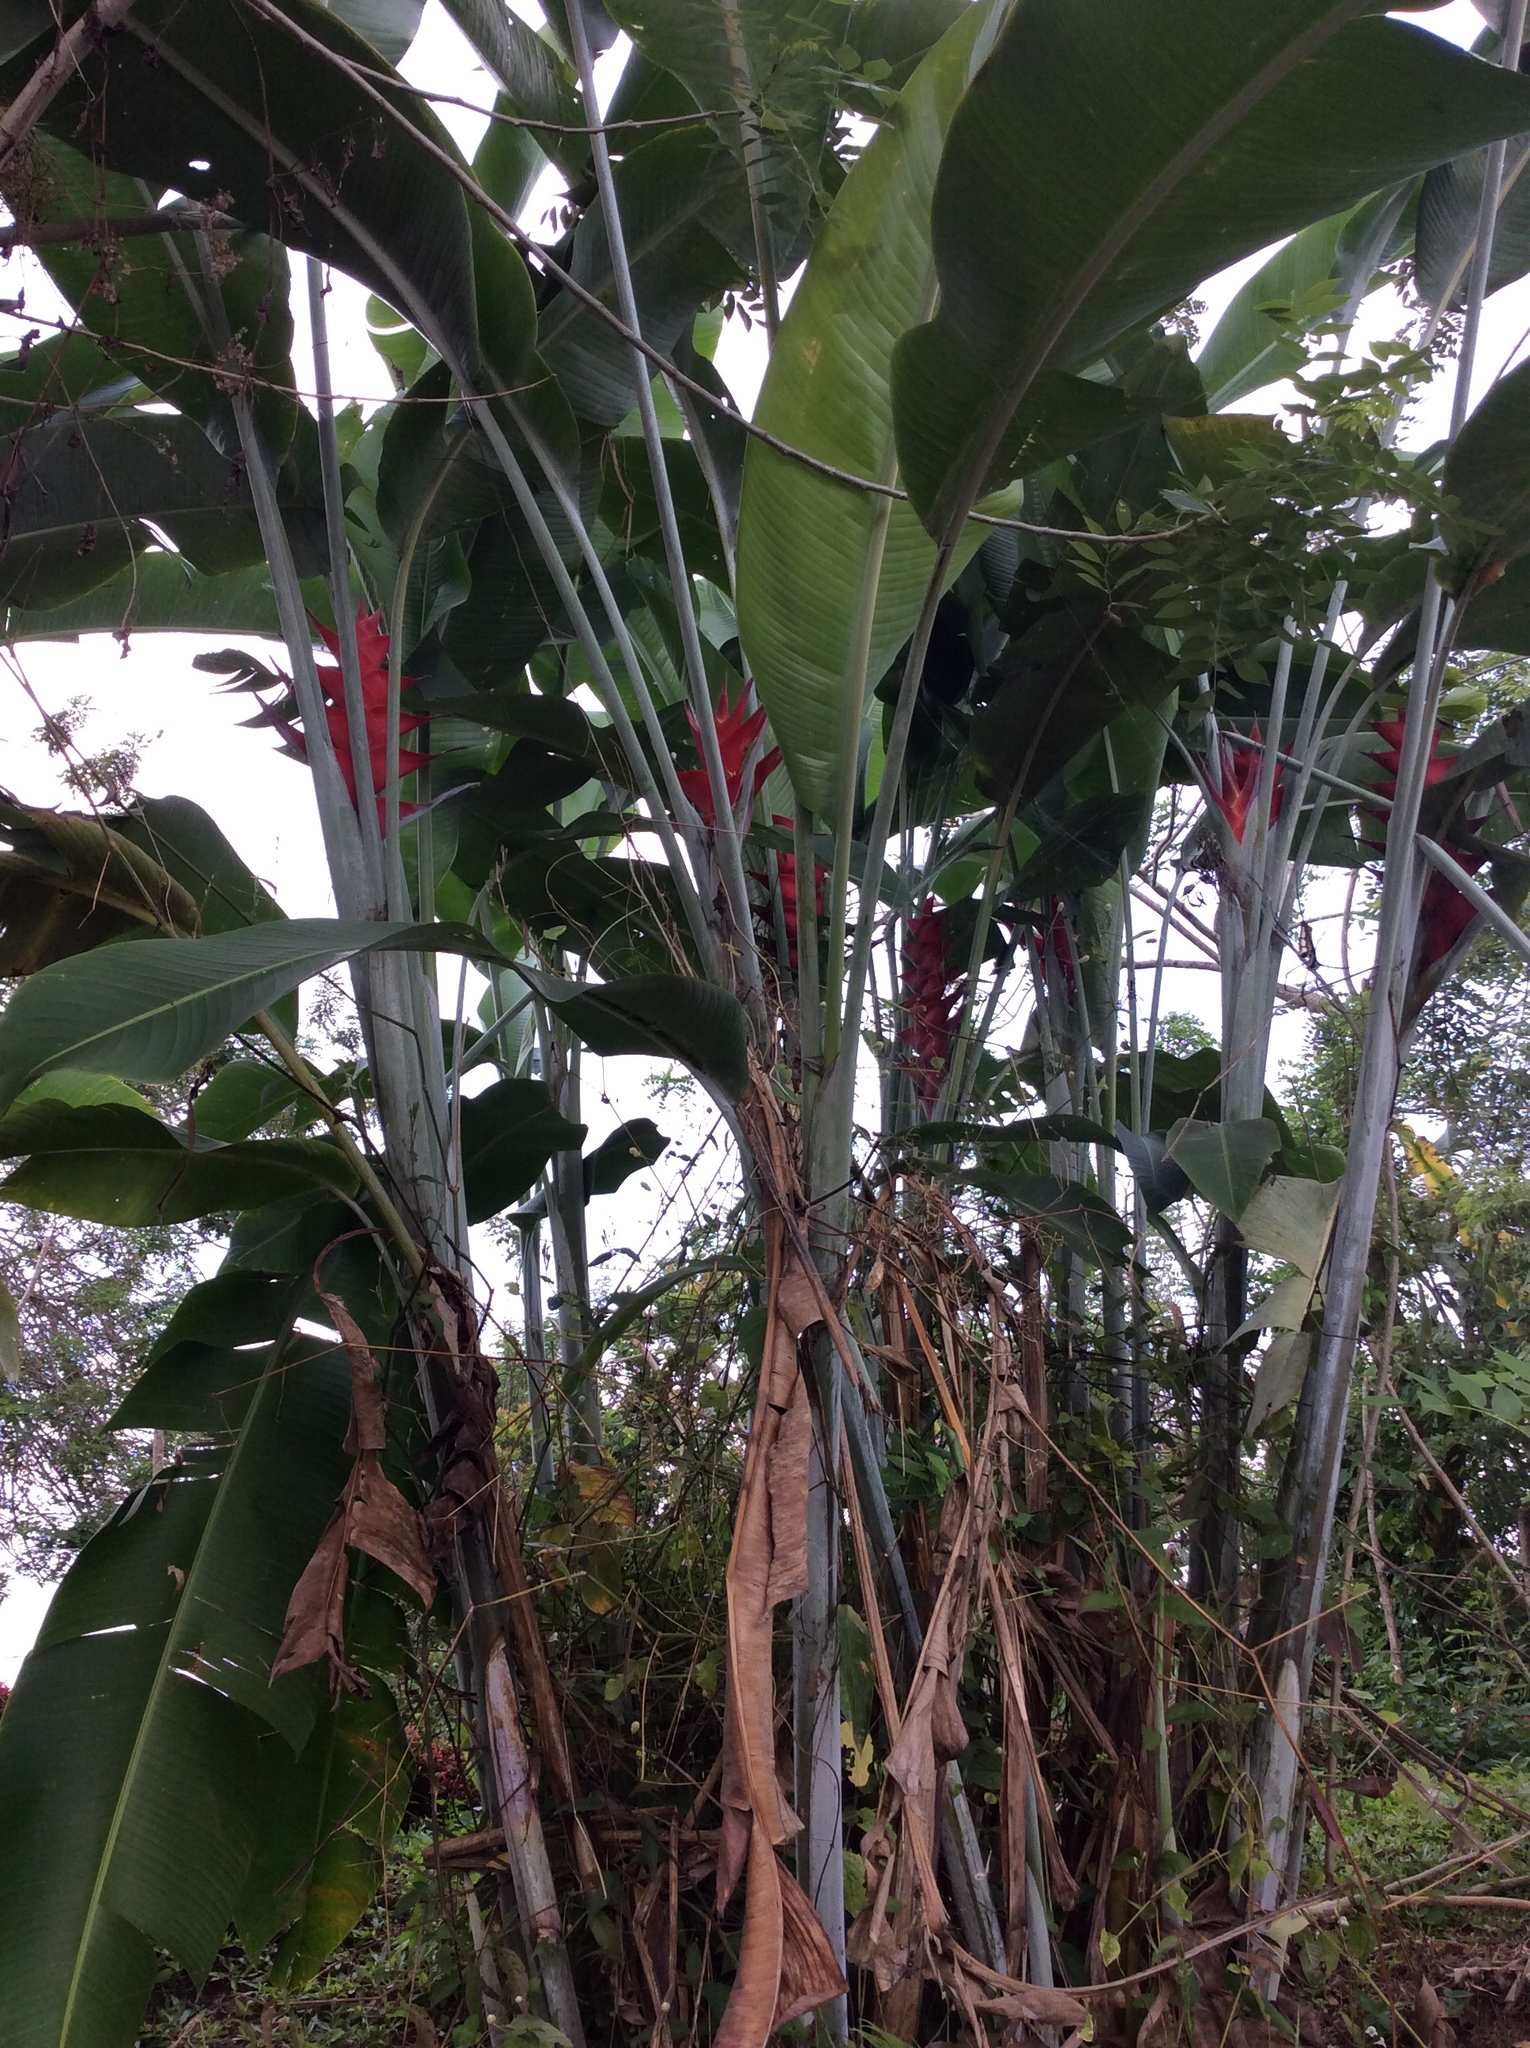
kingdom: Plantae
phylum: Tracheophyta
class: Liliopsida
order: Zingiberales
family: Heliconiaceae
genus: Heliconia
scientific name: Heliconia caribaea
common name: Wild plantain
